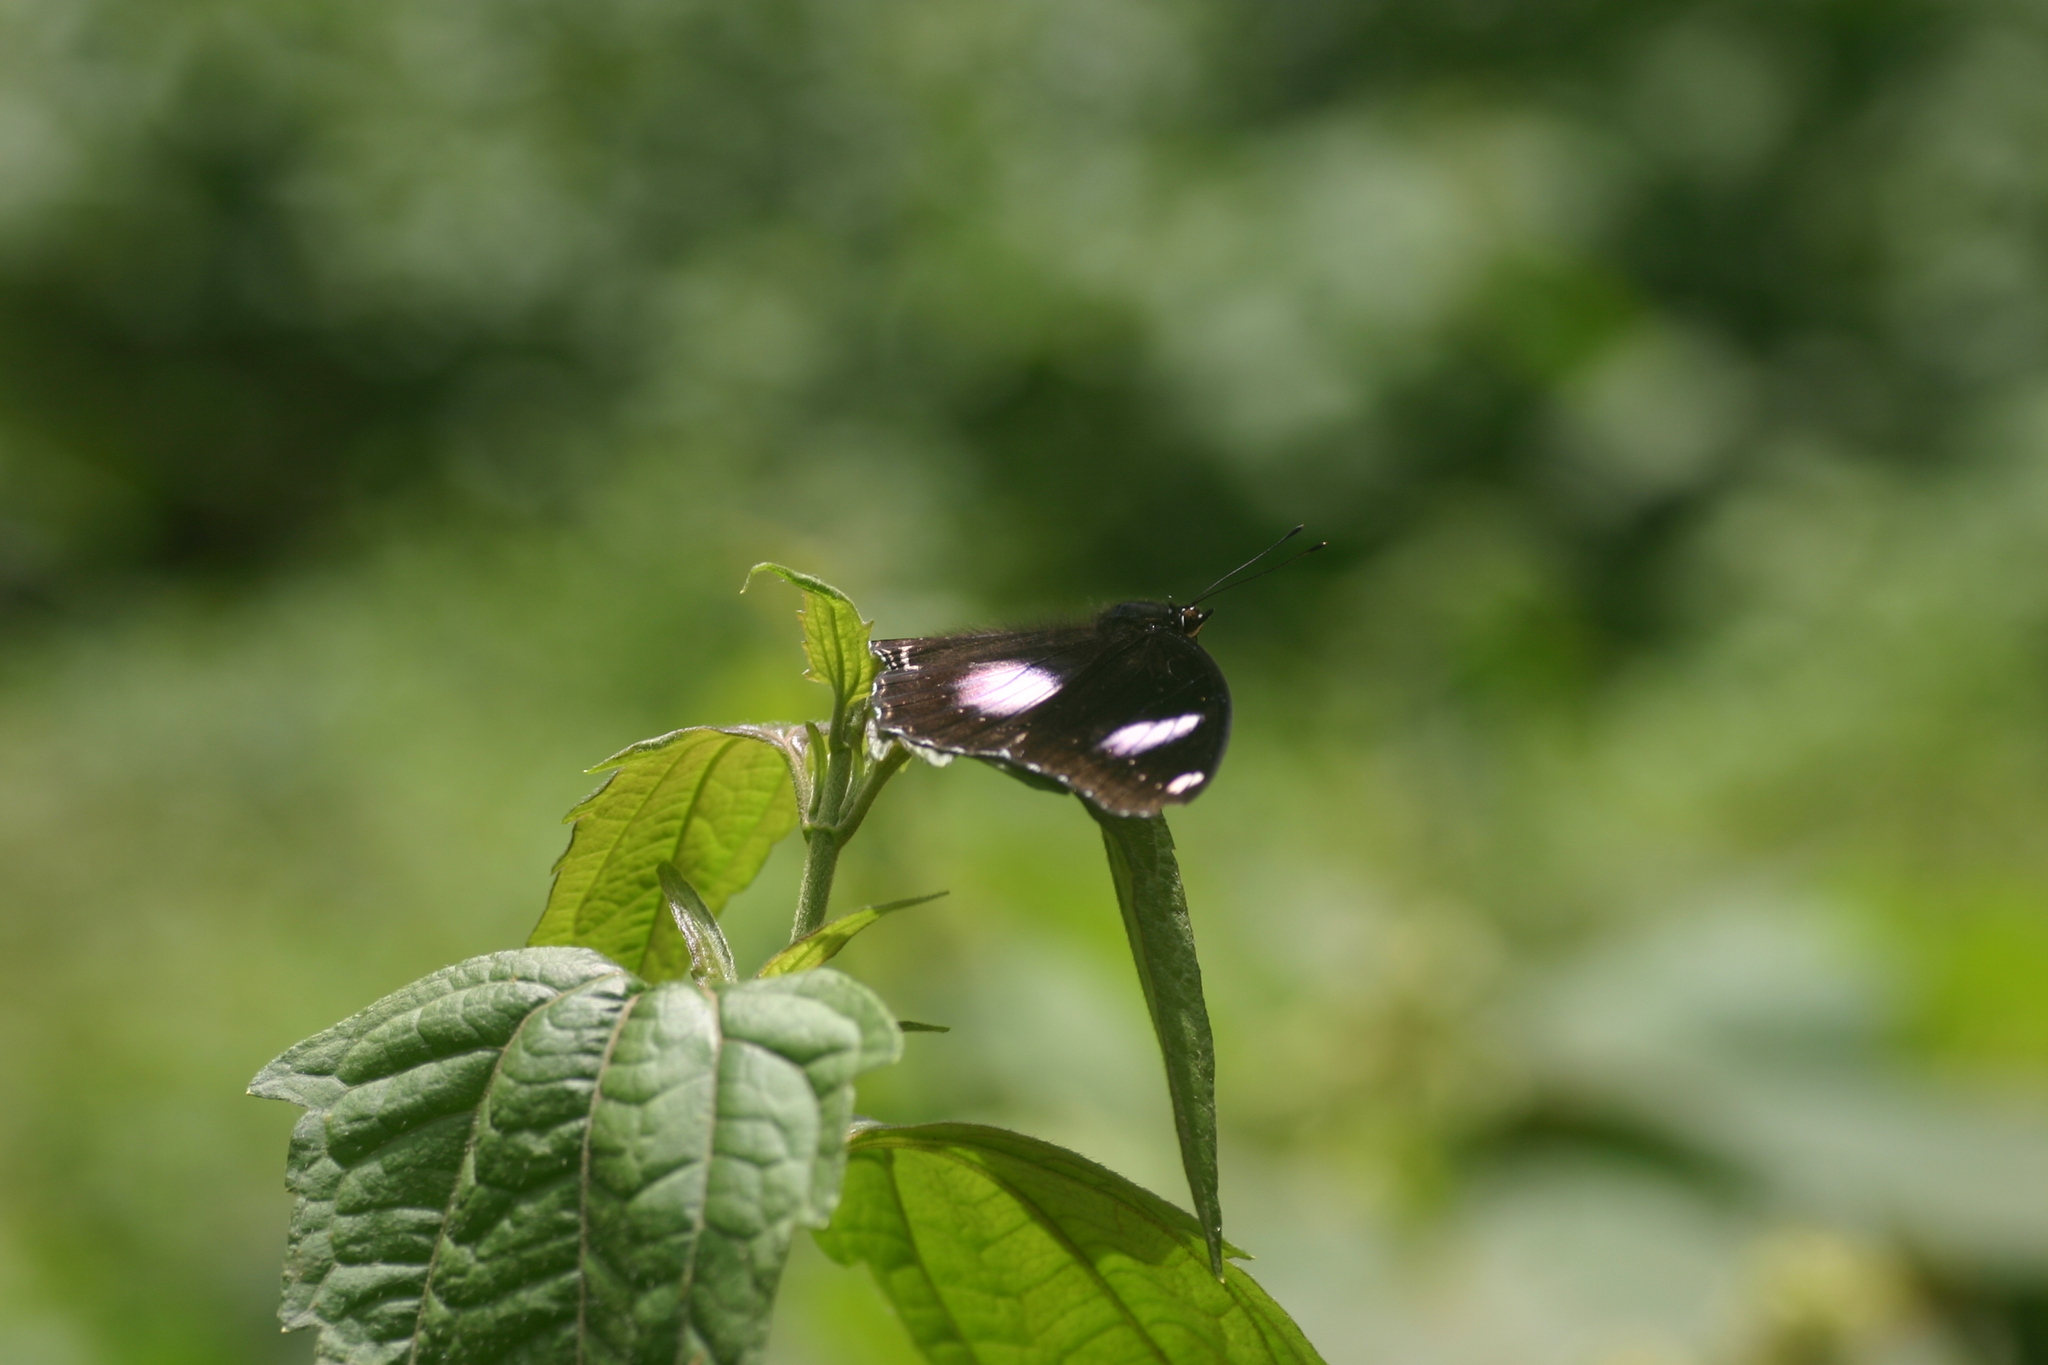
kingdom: Animalia
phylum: Arthropoda
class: Insecta
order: Lepidoptera
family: Nymphalidae
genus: Hypolimnas
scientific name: Hypolimnas bolina
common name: Great eggfly
